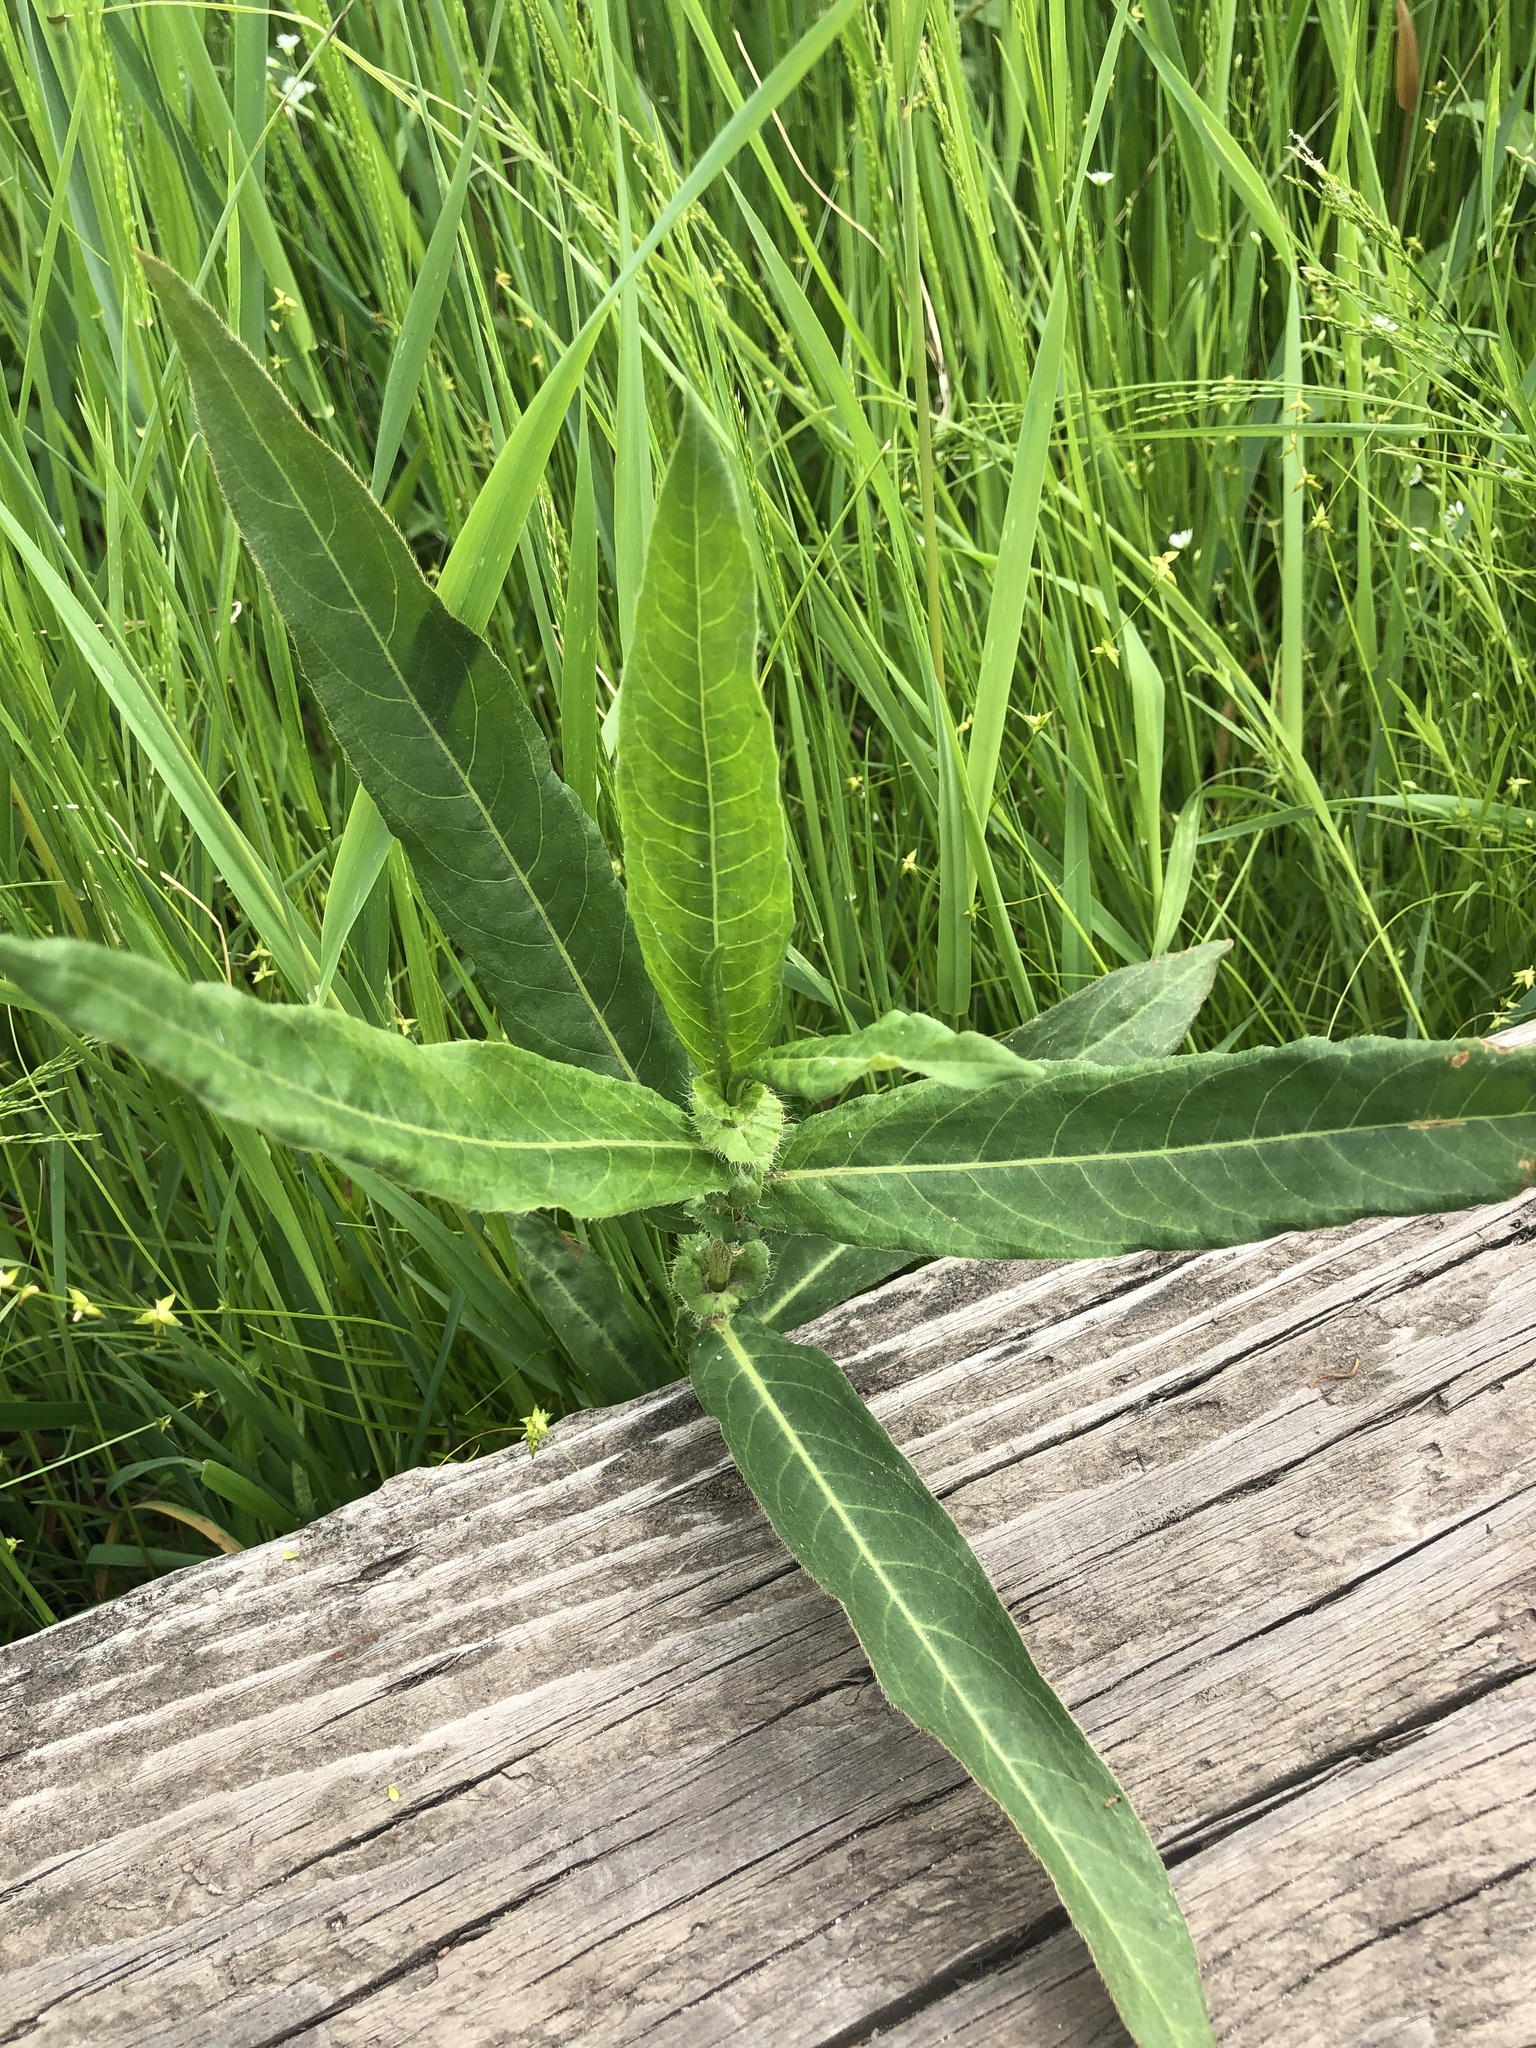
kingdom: Plantae
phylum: Tracheophyta
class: Magnoliopsida
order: Caryophyllales
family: Polygonaceae
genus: Persicaria
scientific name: Persicaria amphibia
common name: Amphibious bistort
